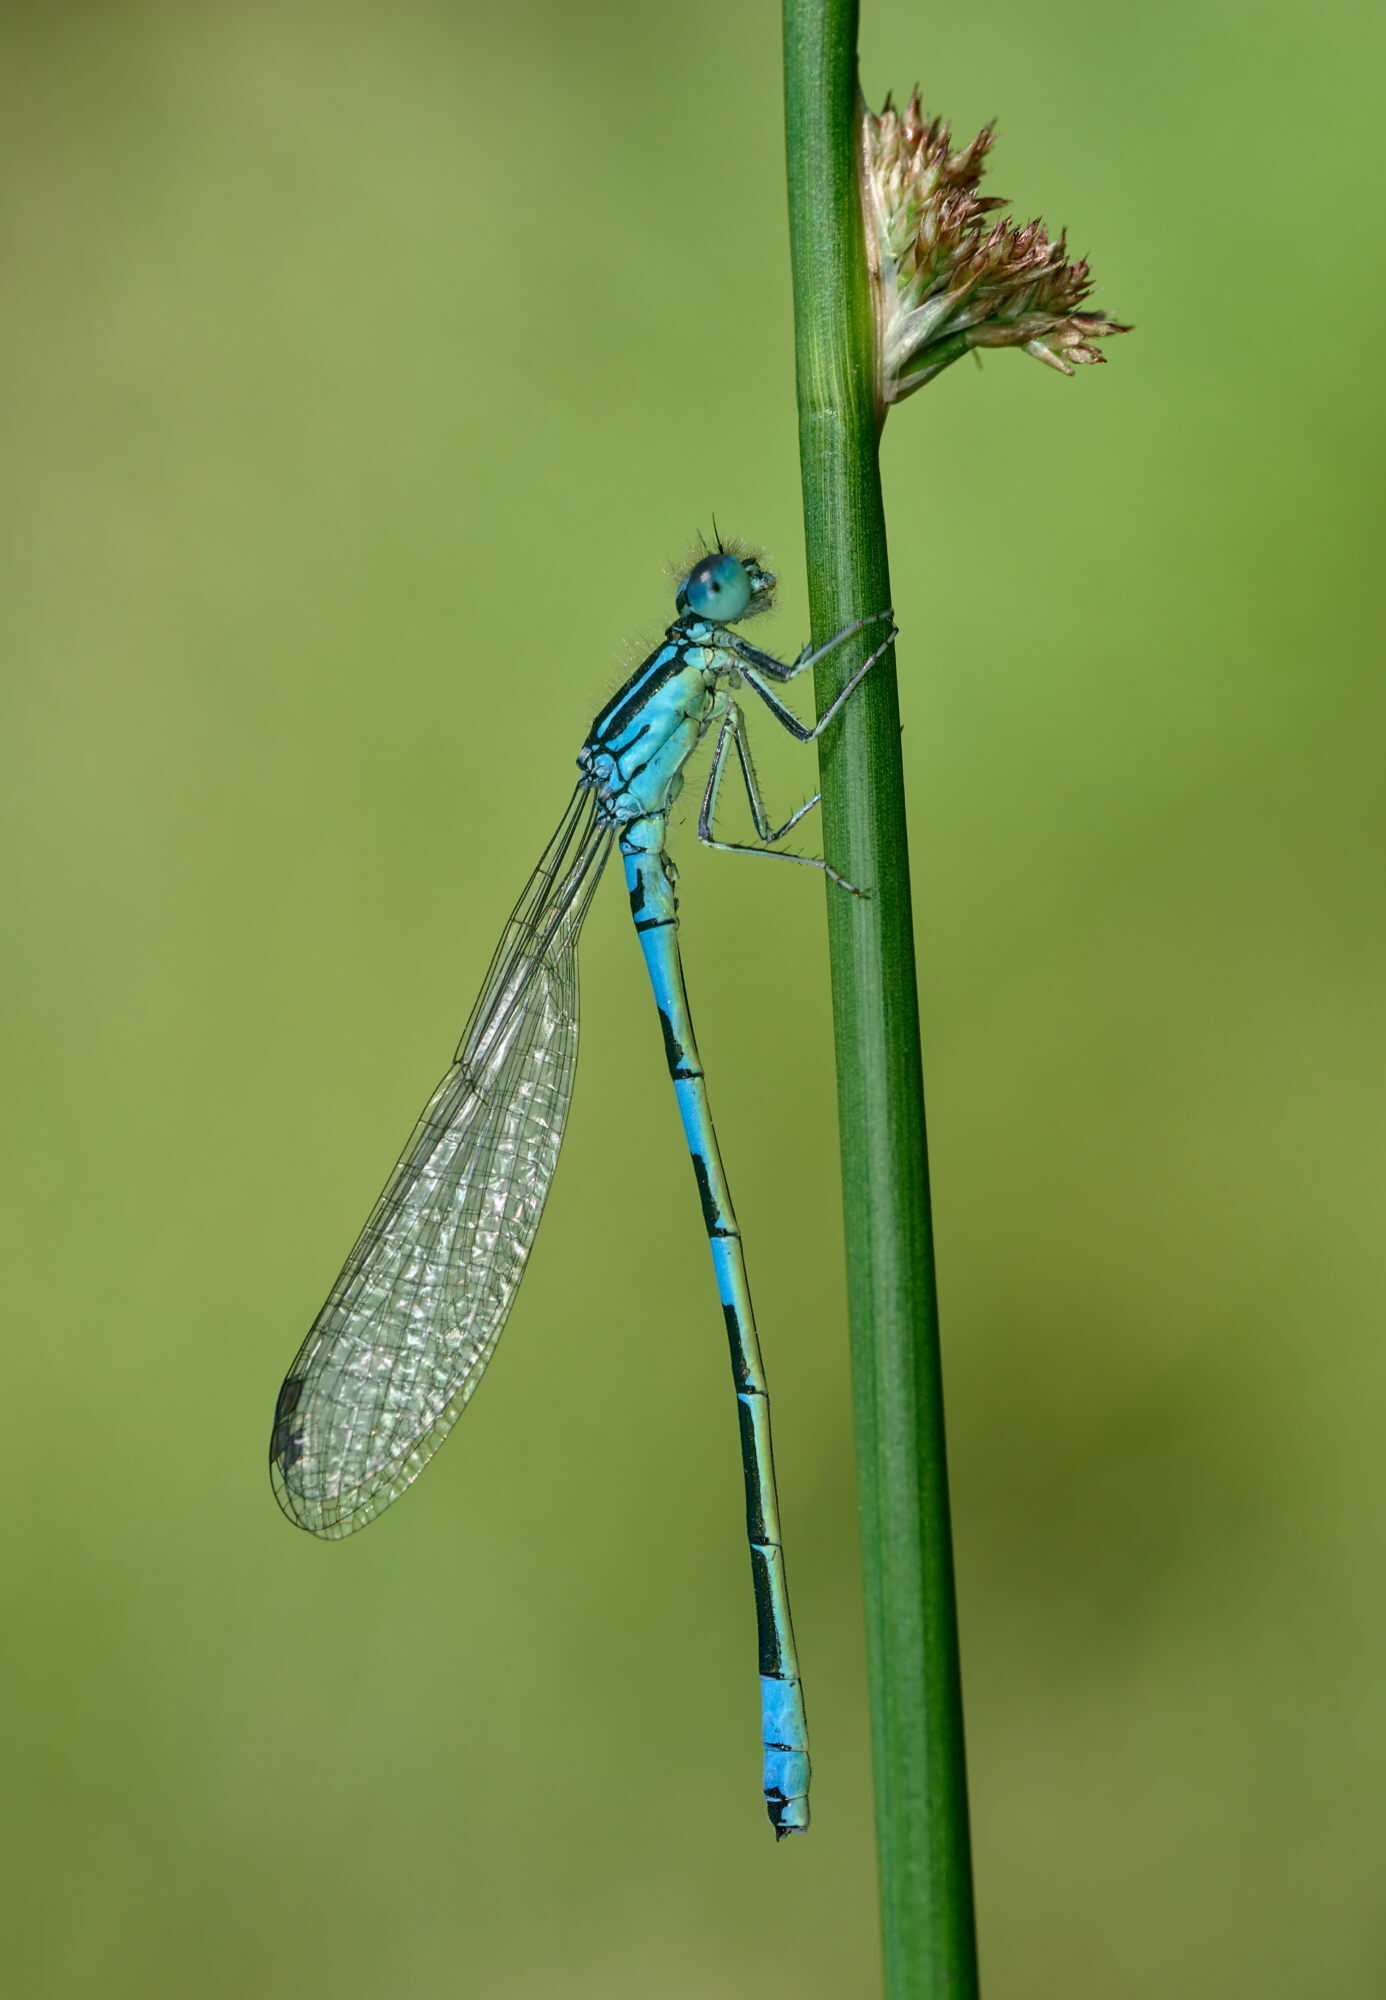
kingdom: Animalia
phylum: Arthropoda
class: Insecta
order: Odonata
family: Coenagrionidae
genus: Coenagrion
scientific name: Coenagrion scitulum
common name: Dainty bluet
